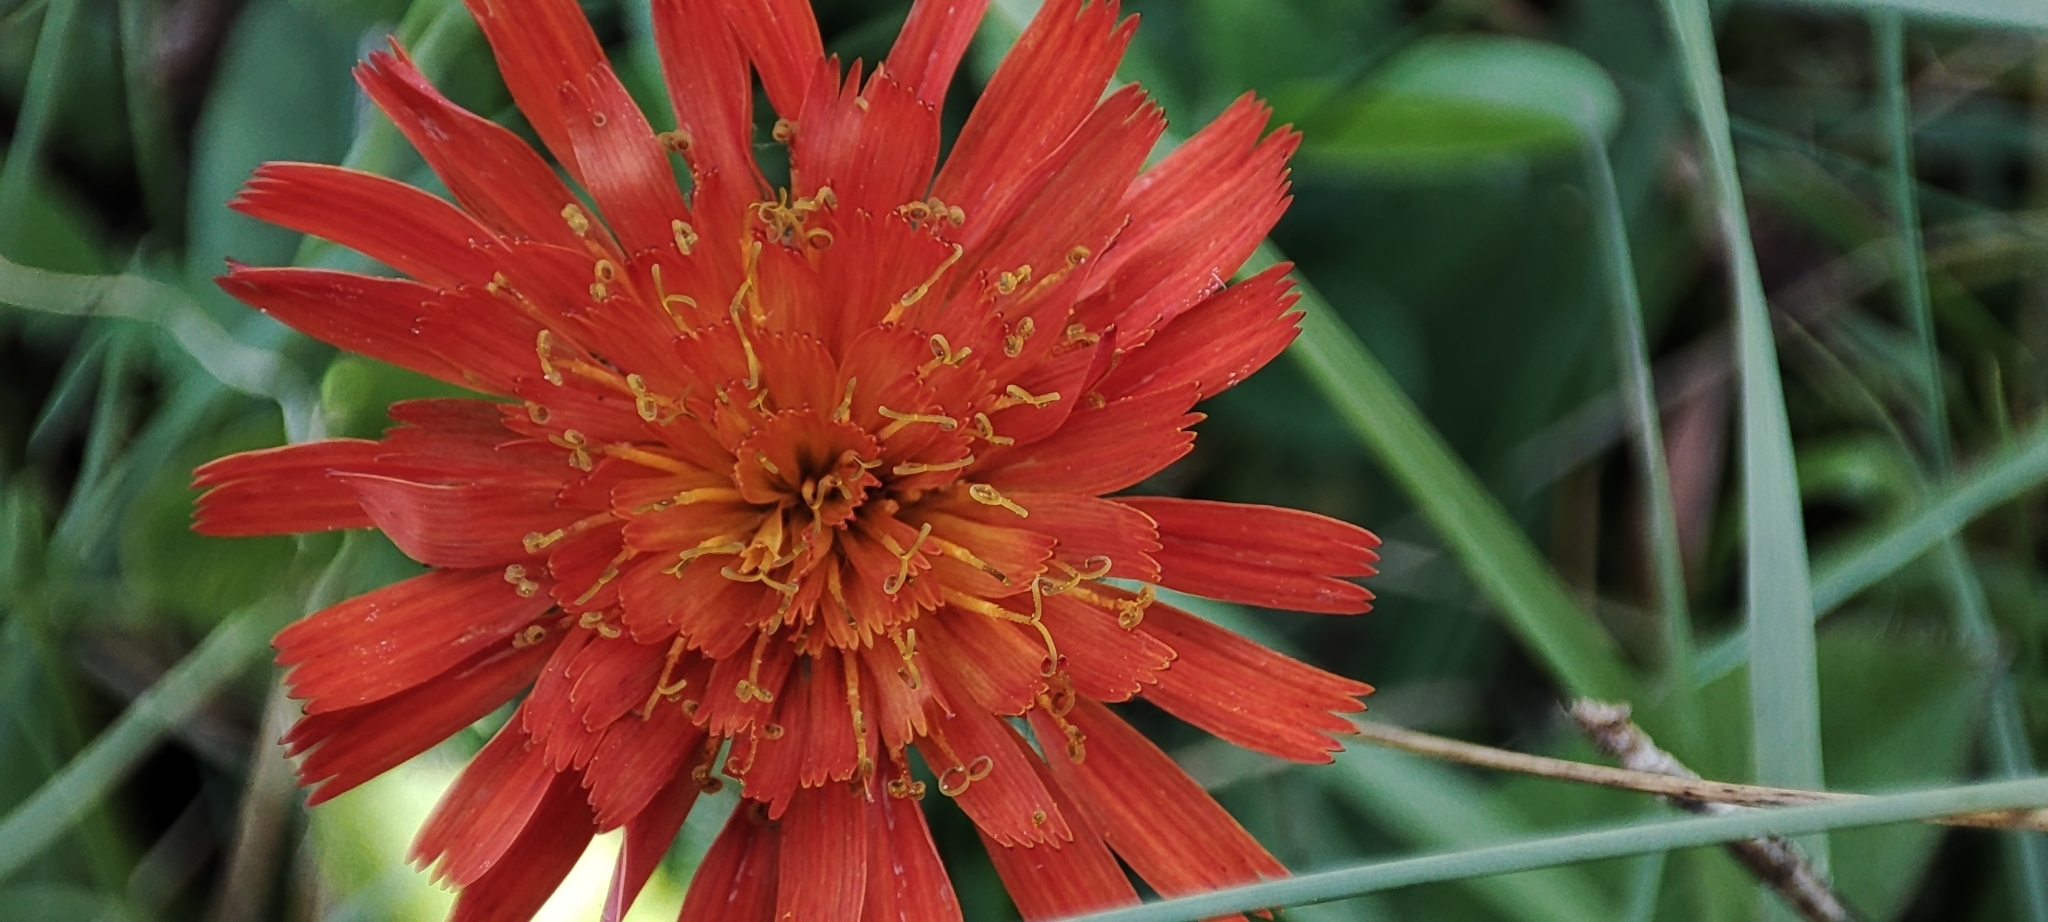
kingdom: Plantae
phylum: Tracheophyta
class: Magnoliopsida
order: Asterales
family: Asteraceae
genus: Pilosella
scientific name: Pilosella aurantiaca
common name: Fox-and-cubs
